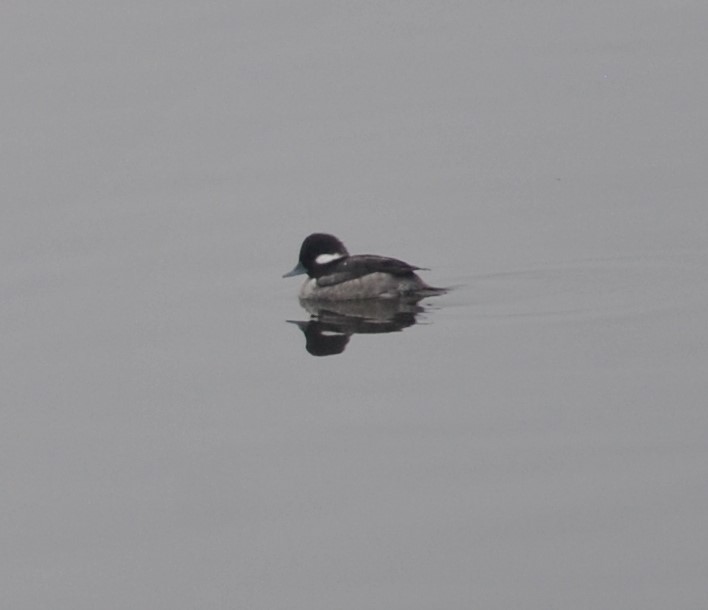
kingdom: Animalia
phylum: Chordata
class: Aves
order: Anseriformes
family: Anatidae
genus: Bucephala
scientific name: Bucephala albeola
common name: Bufflehead
